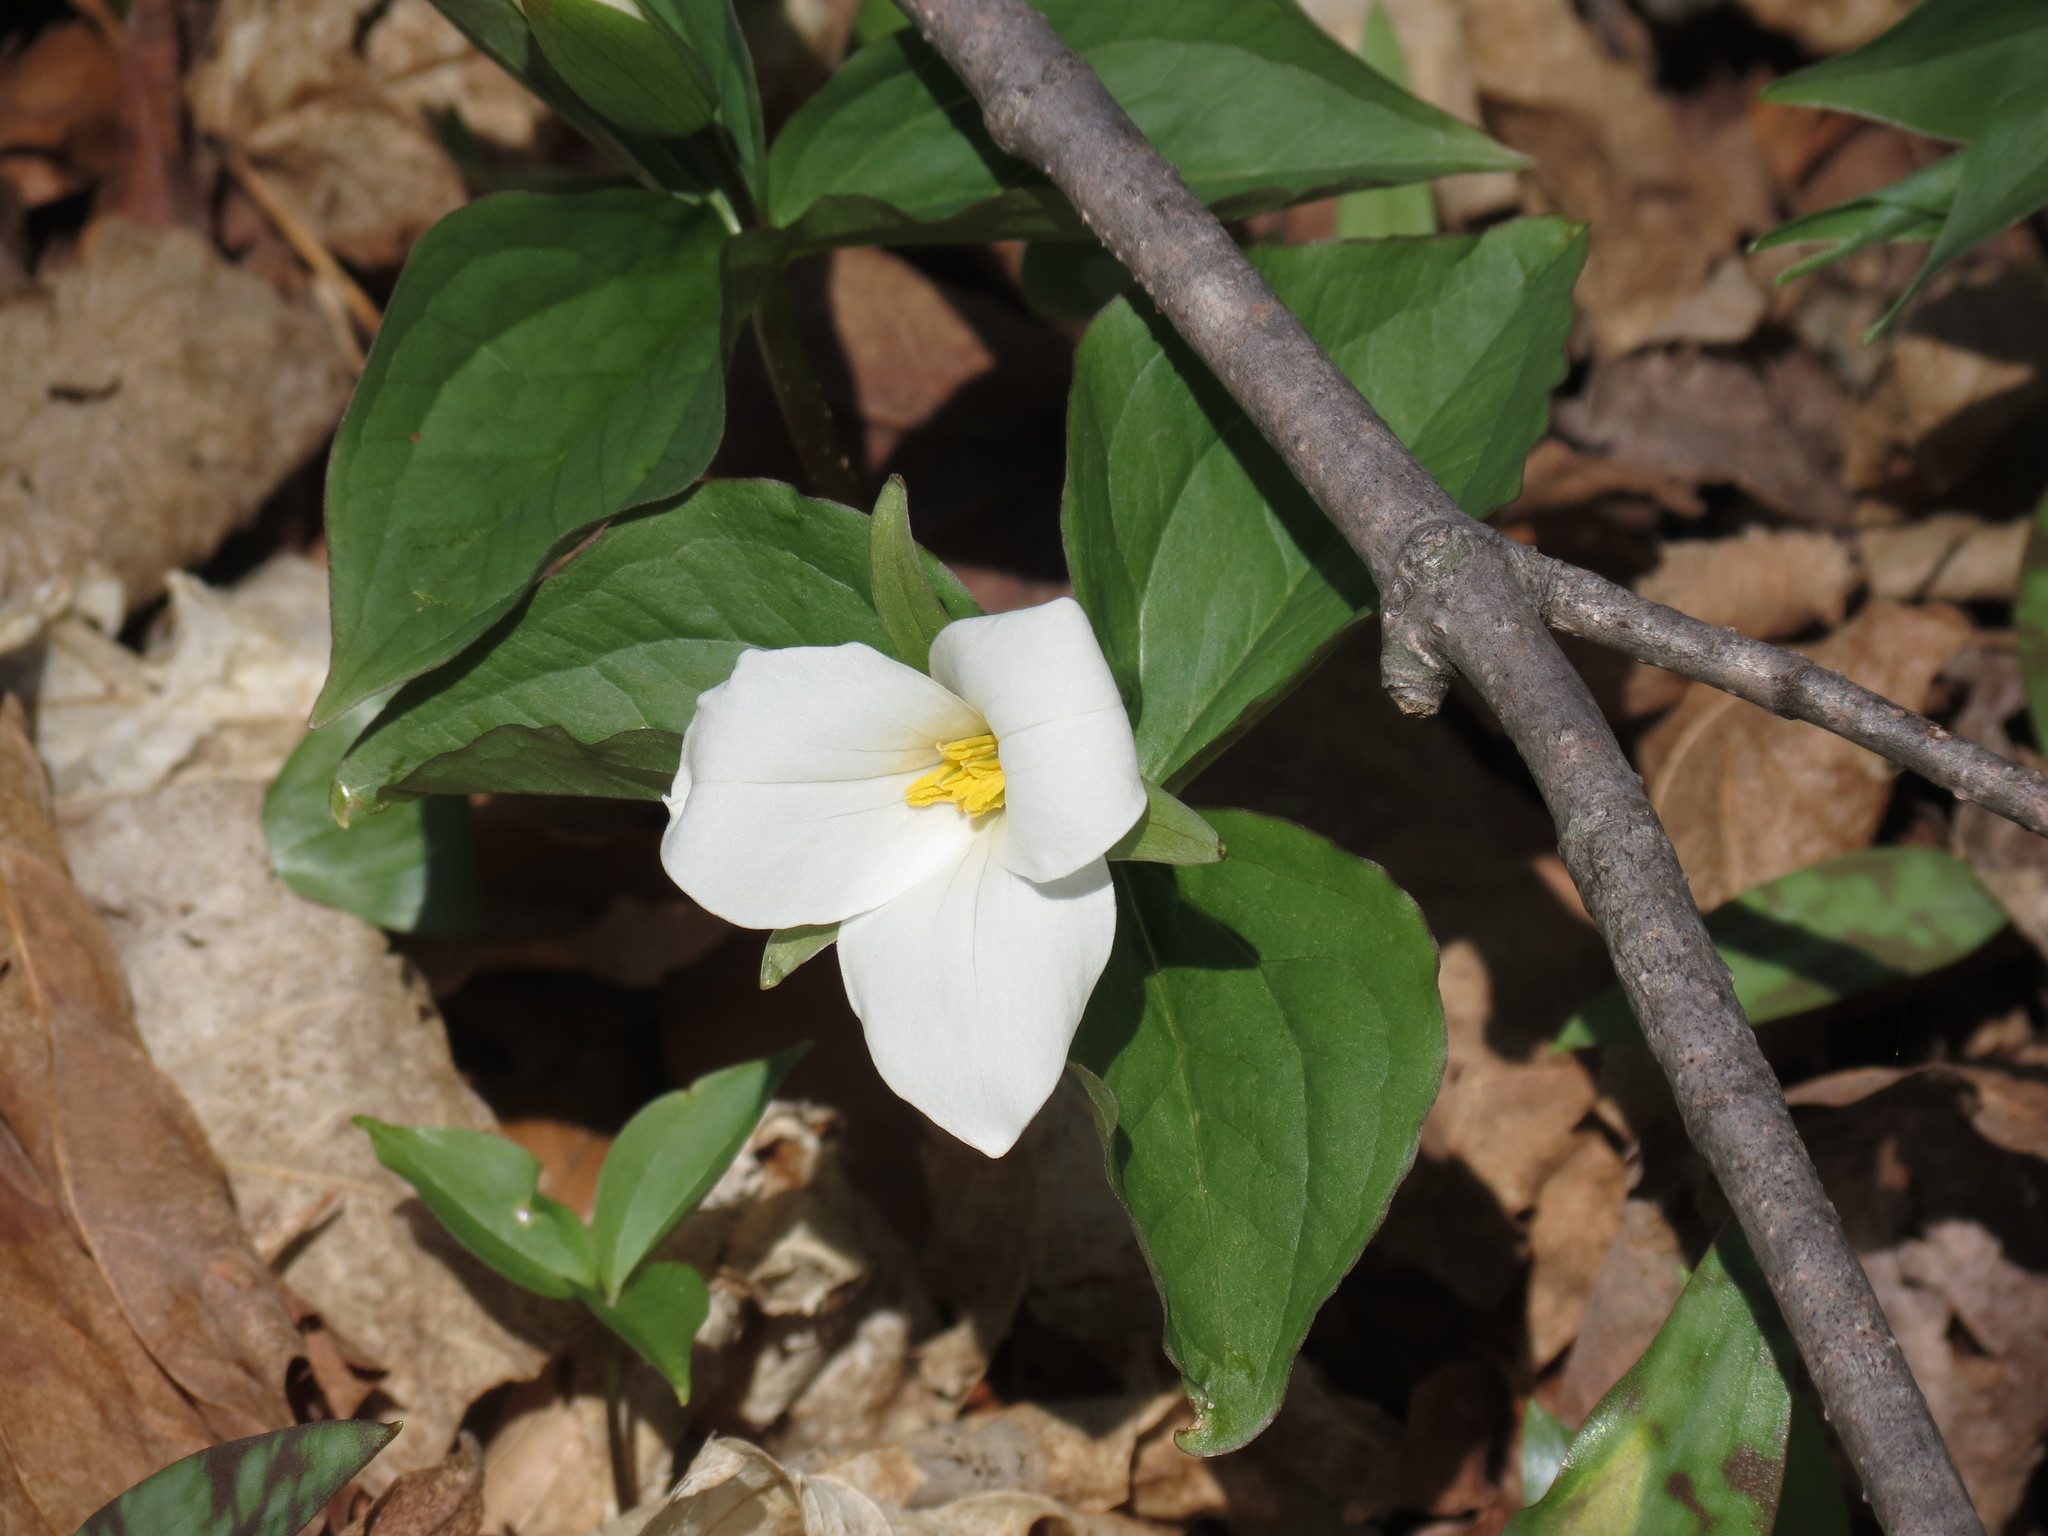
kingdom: Plantae
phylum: Tracheophyta
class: Liliopsida
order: Liliales
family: Melanthiaceae
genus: Trillium
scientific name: Trillium grandiflorum
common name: Great white trillium
